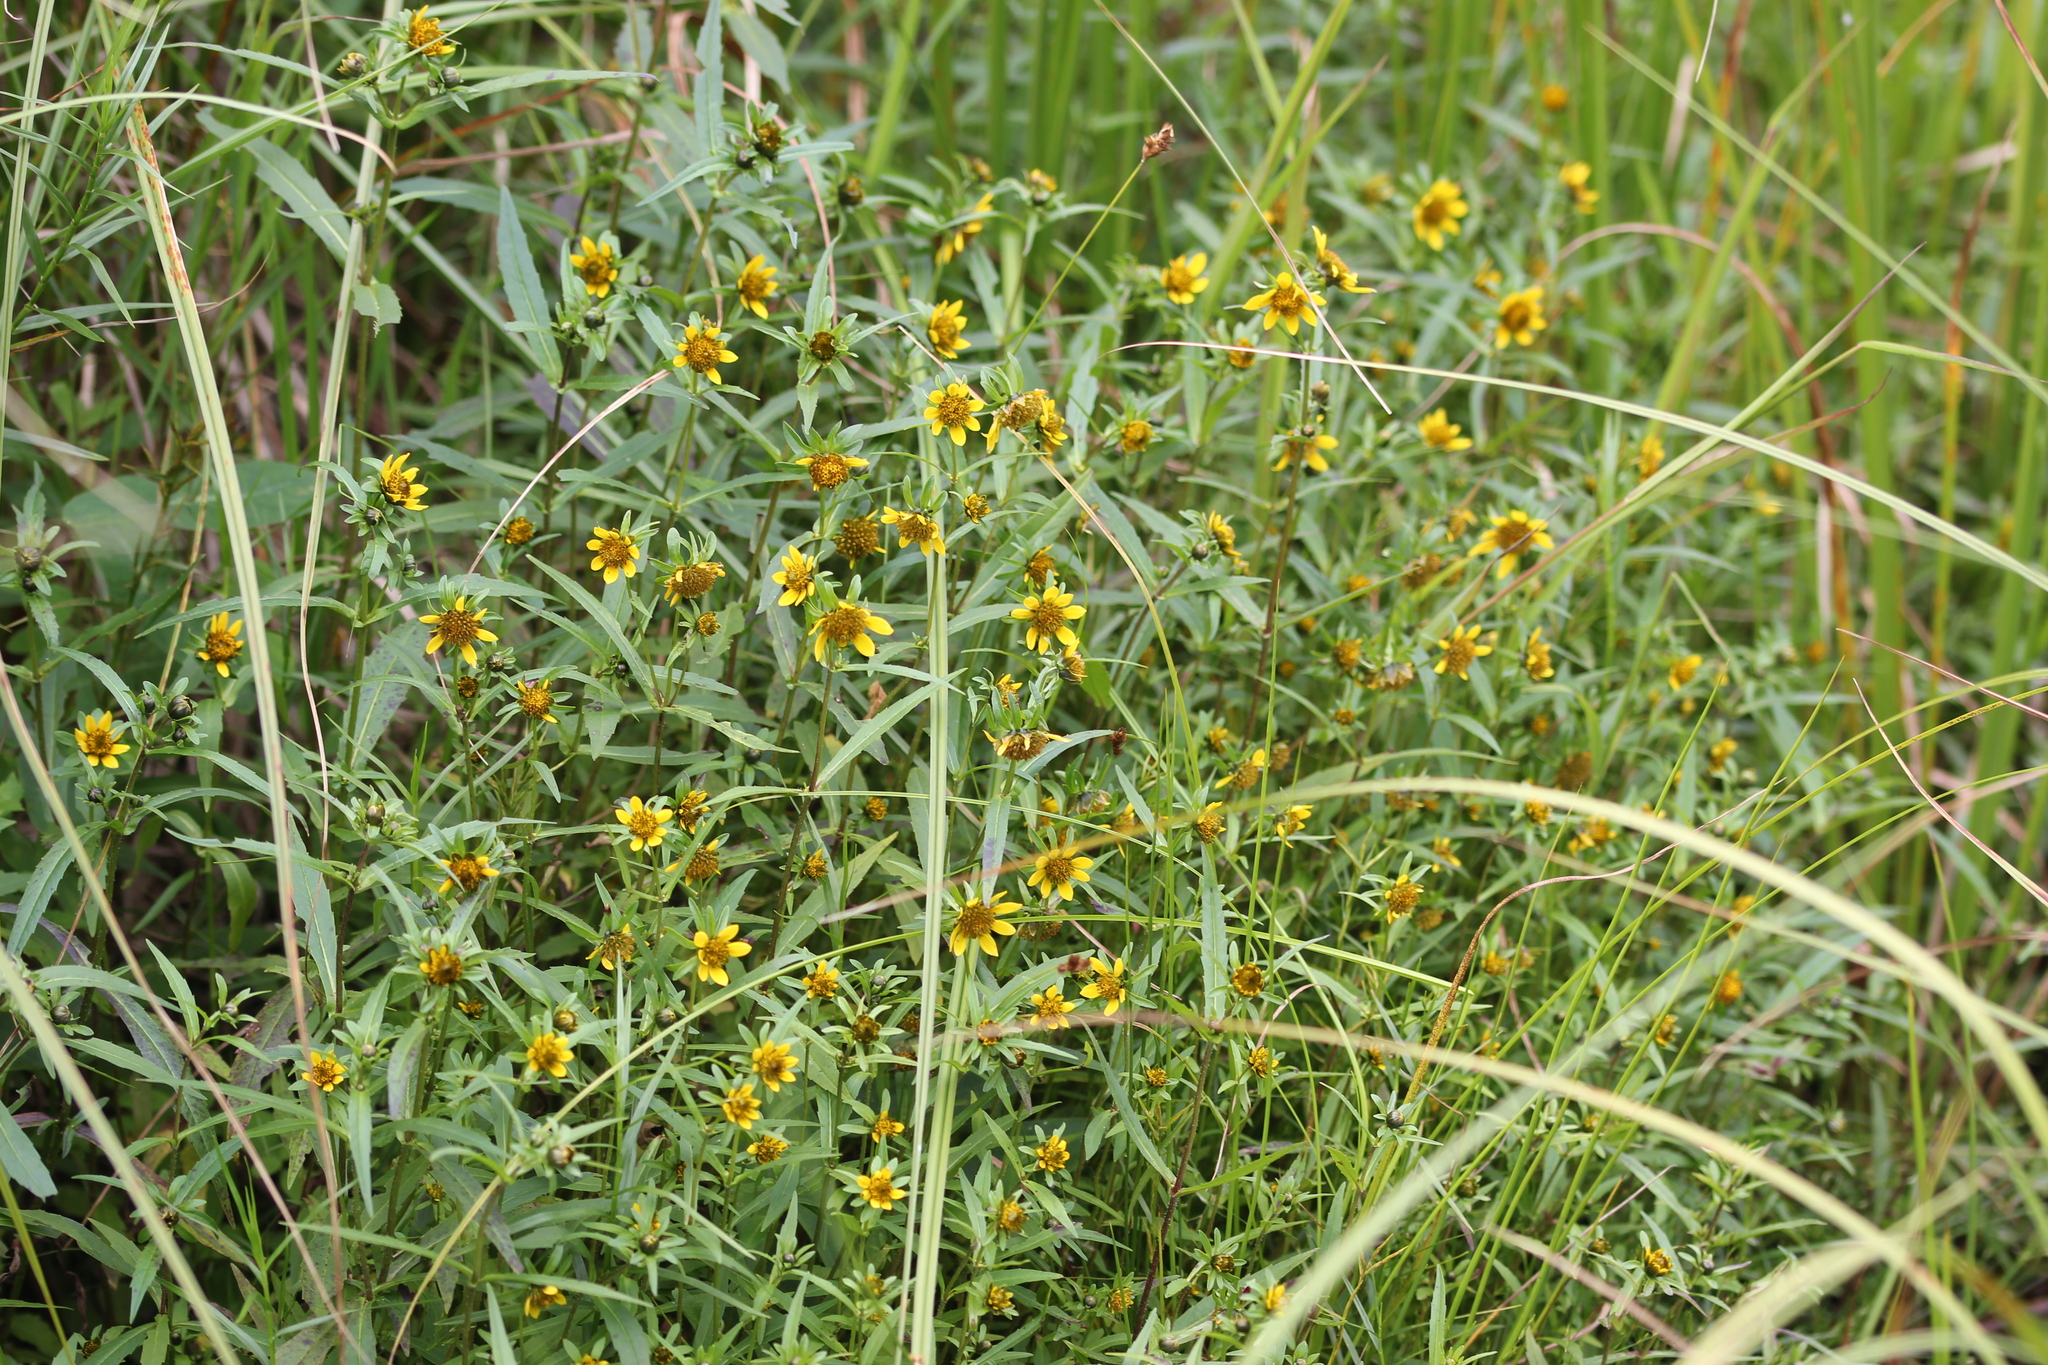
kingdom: Plantae
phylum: Tracheophyta
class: Magnoliopsida
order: Asterales
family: Asteraceae
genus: Bidens
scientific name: Bidens cernua
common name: Nodding bur-marigold
